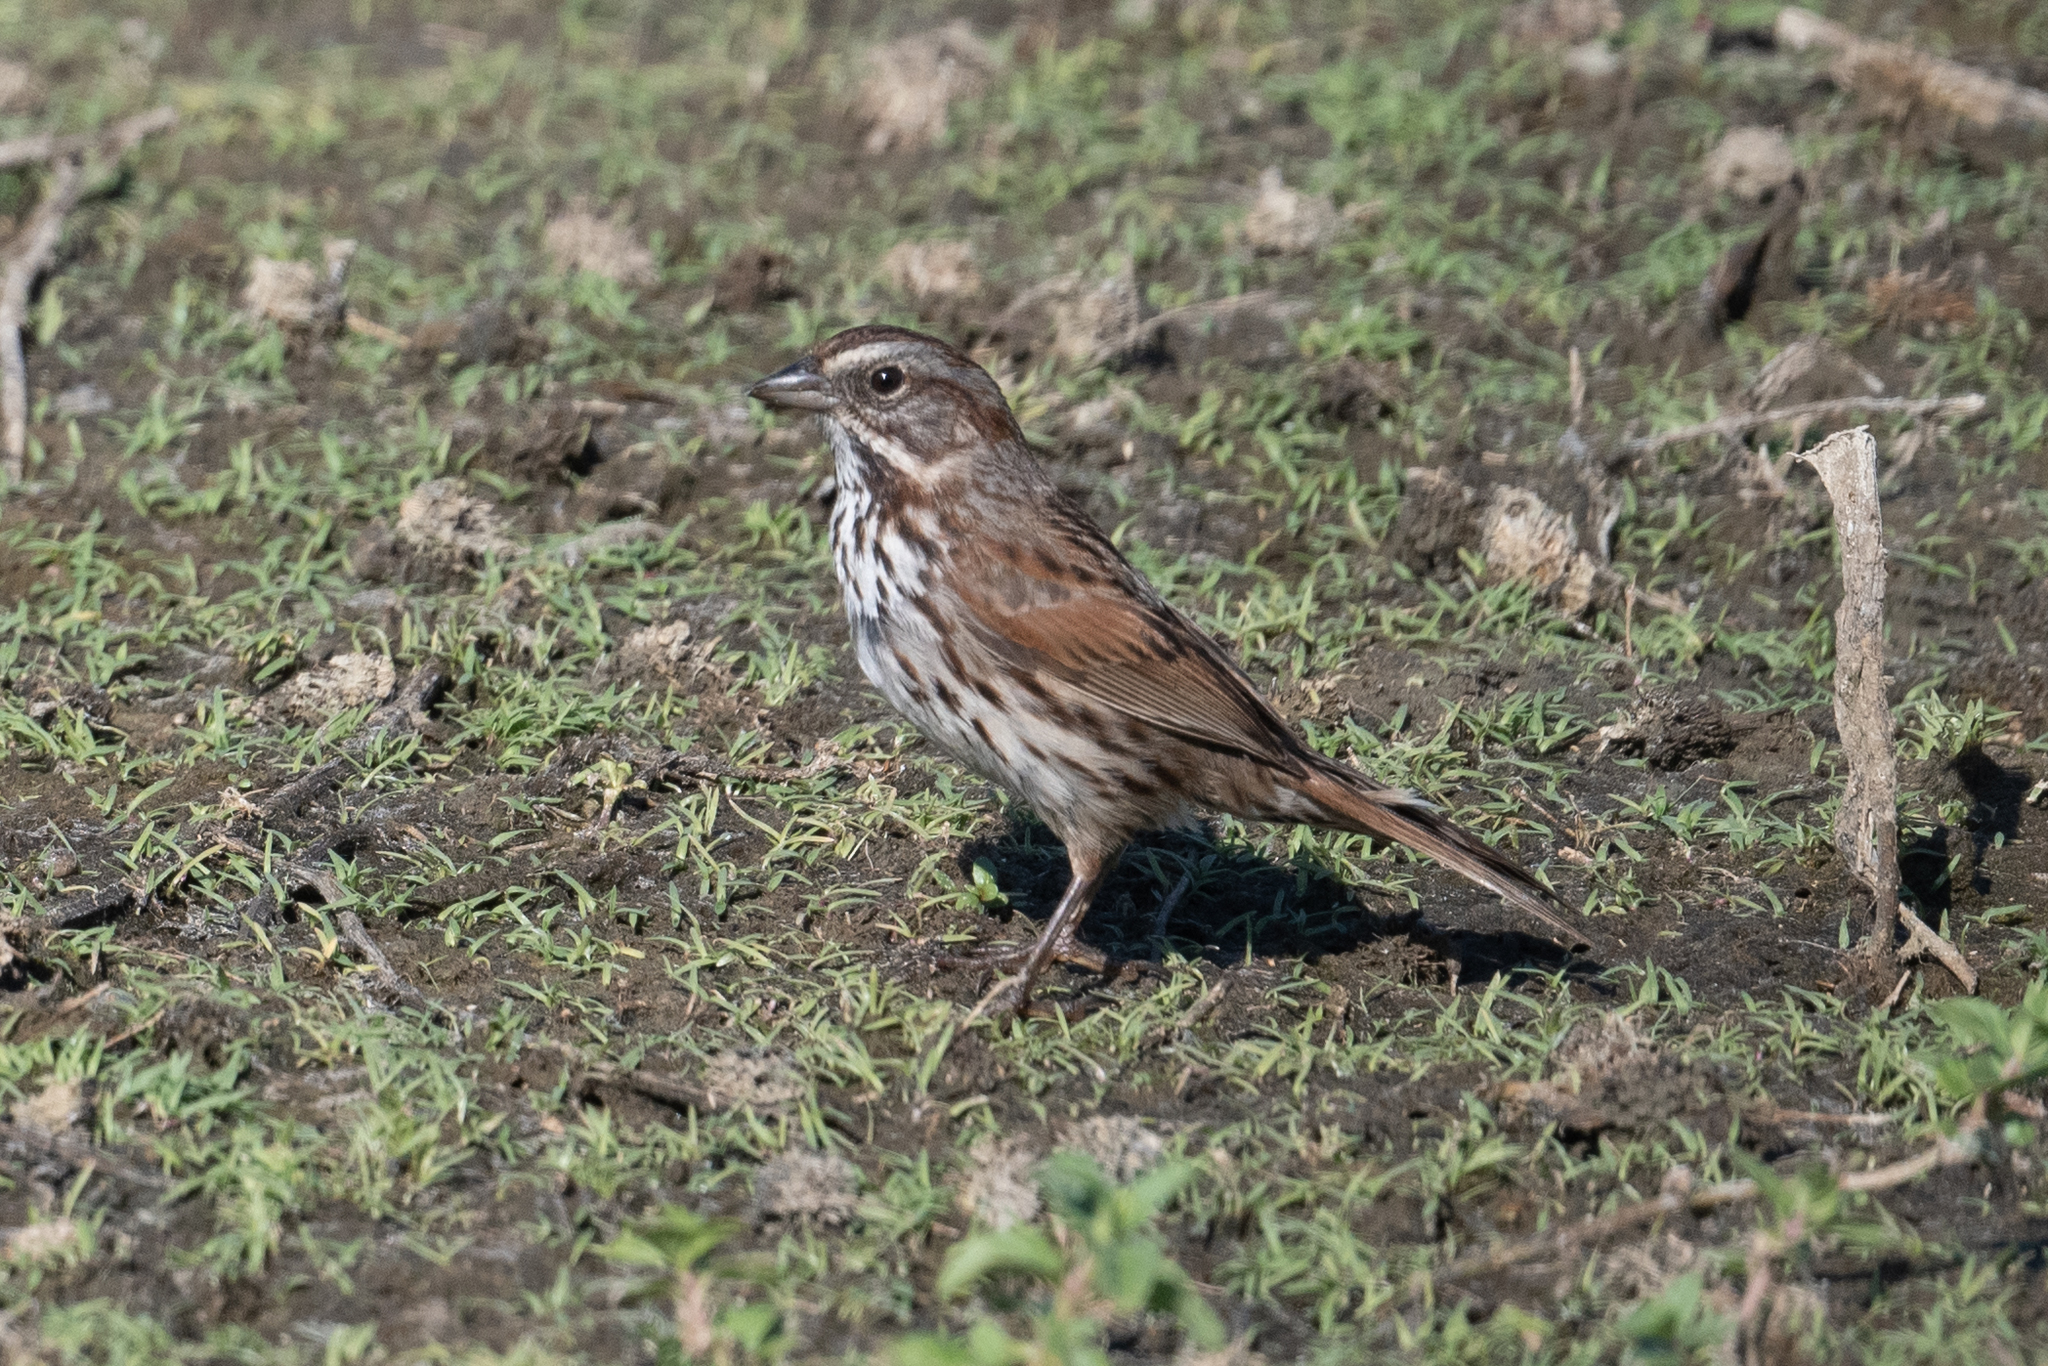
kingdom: Animalia
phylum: Chordata
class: Aves
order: Passeriformes
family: Passerellidae
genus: Melospiza
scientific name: Melospiza melodia
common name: Song sparrow
